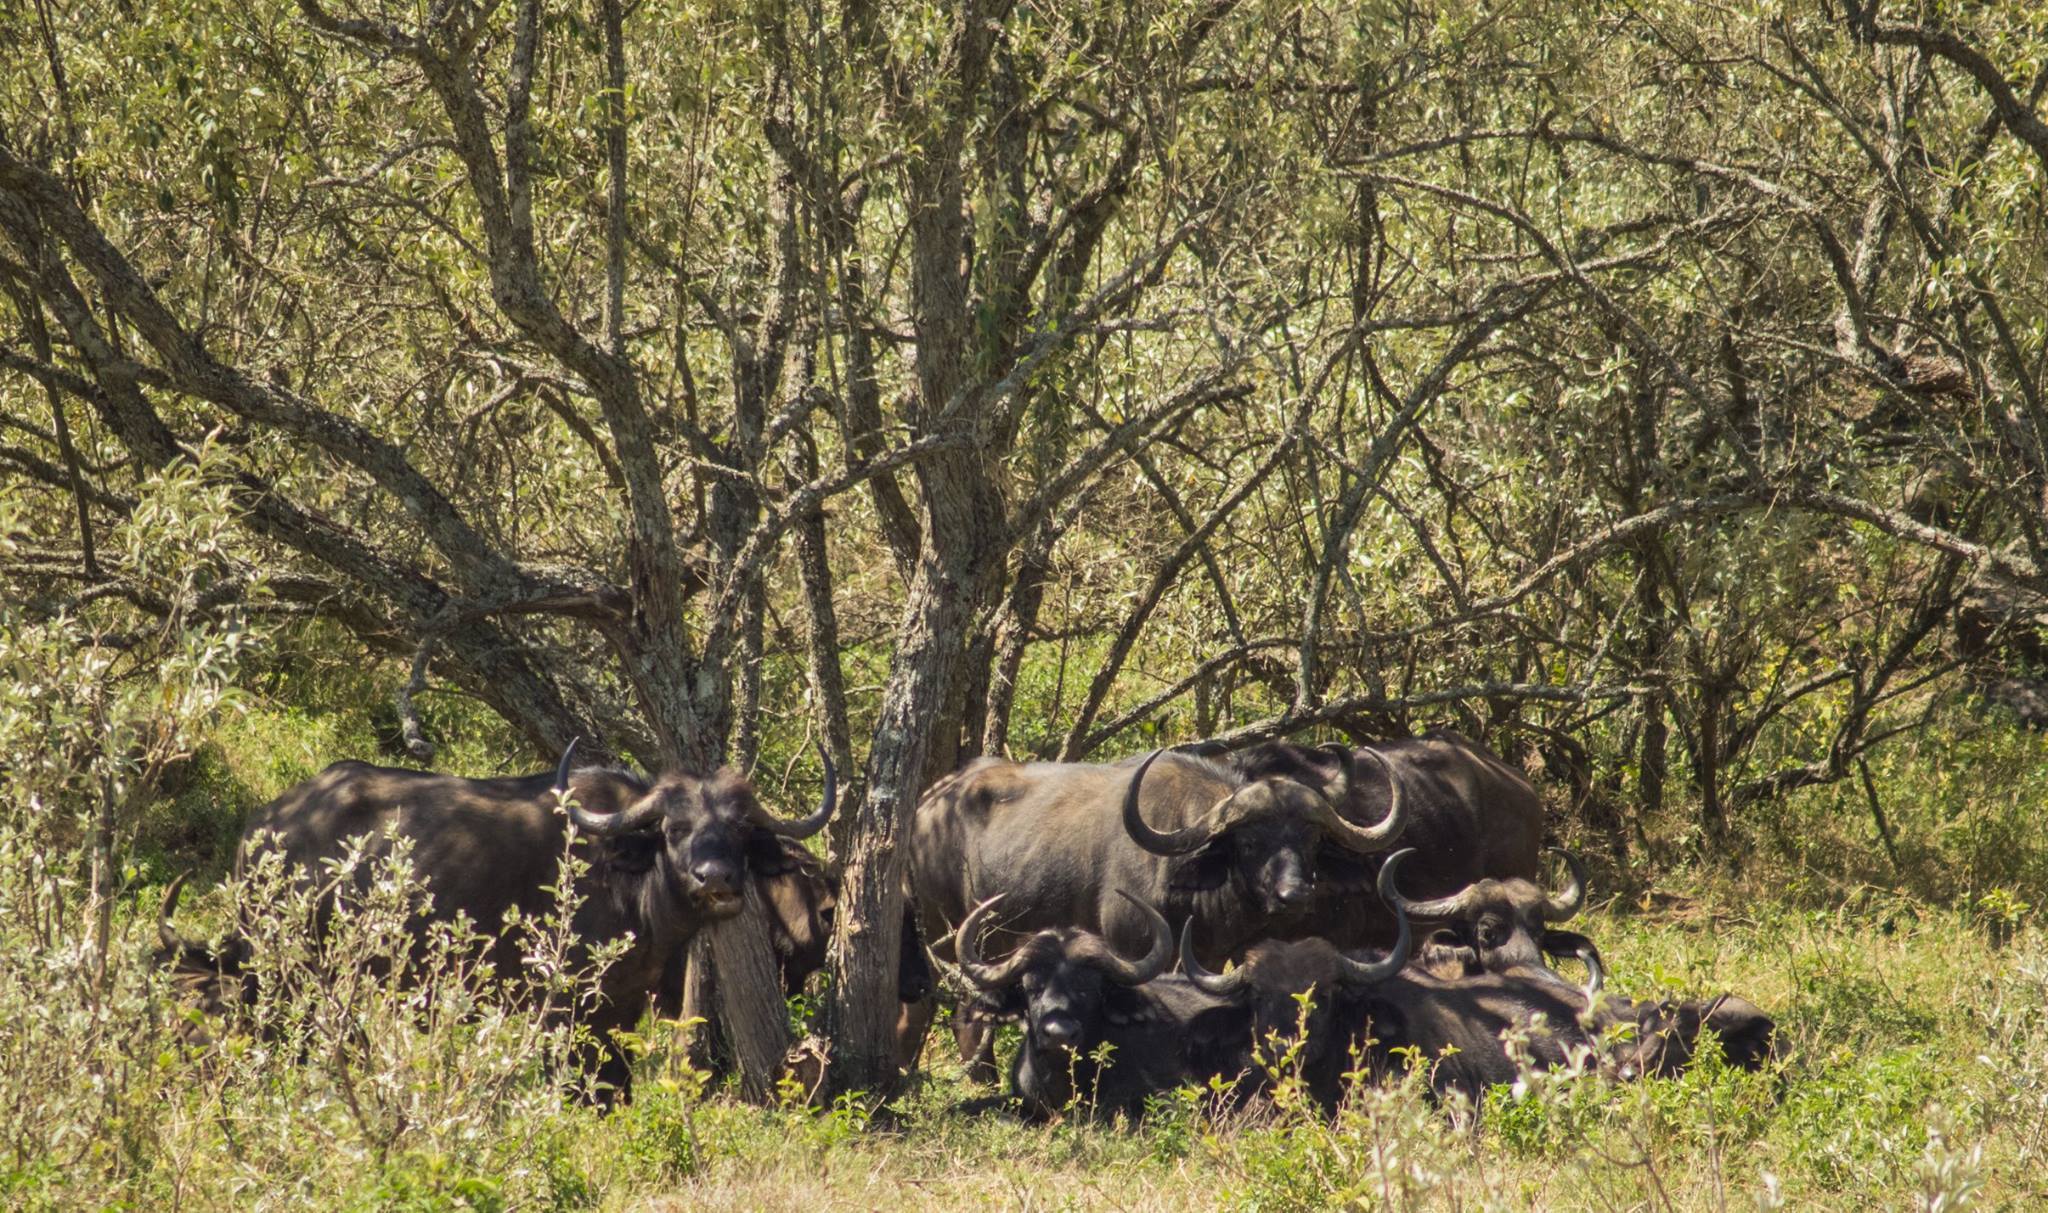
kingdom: Animalia
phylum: Chordata
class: Mammalia
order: Artiodactyla
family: Bovidae
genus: Syncerus
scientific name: Syncerus caffer
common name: African buffalo
